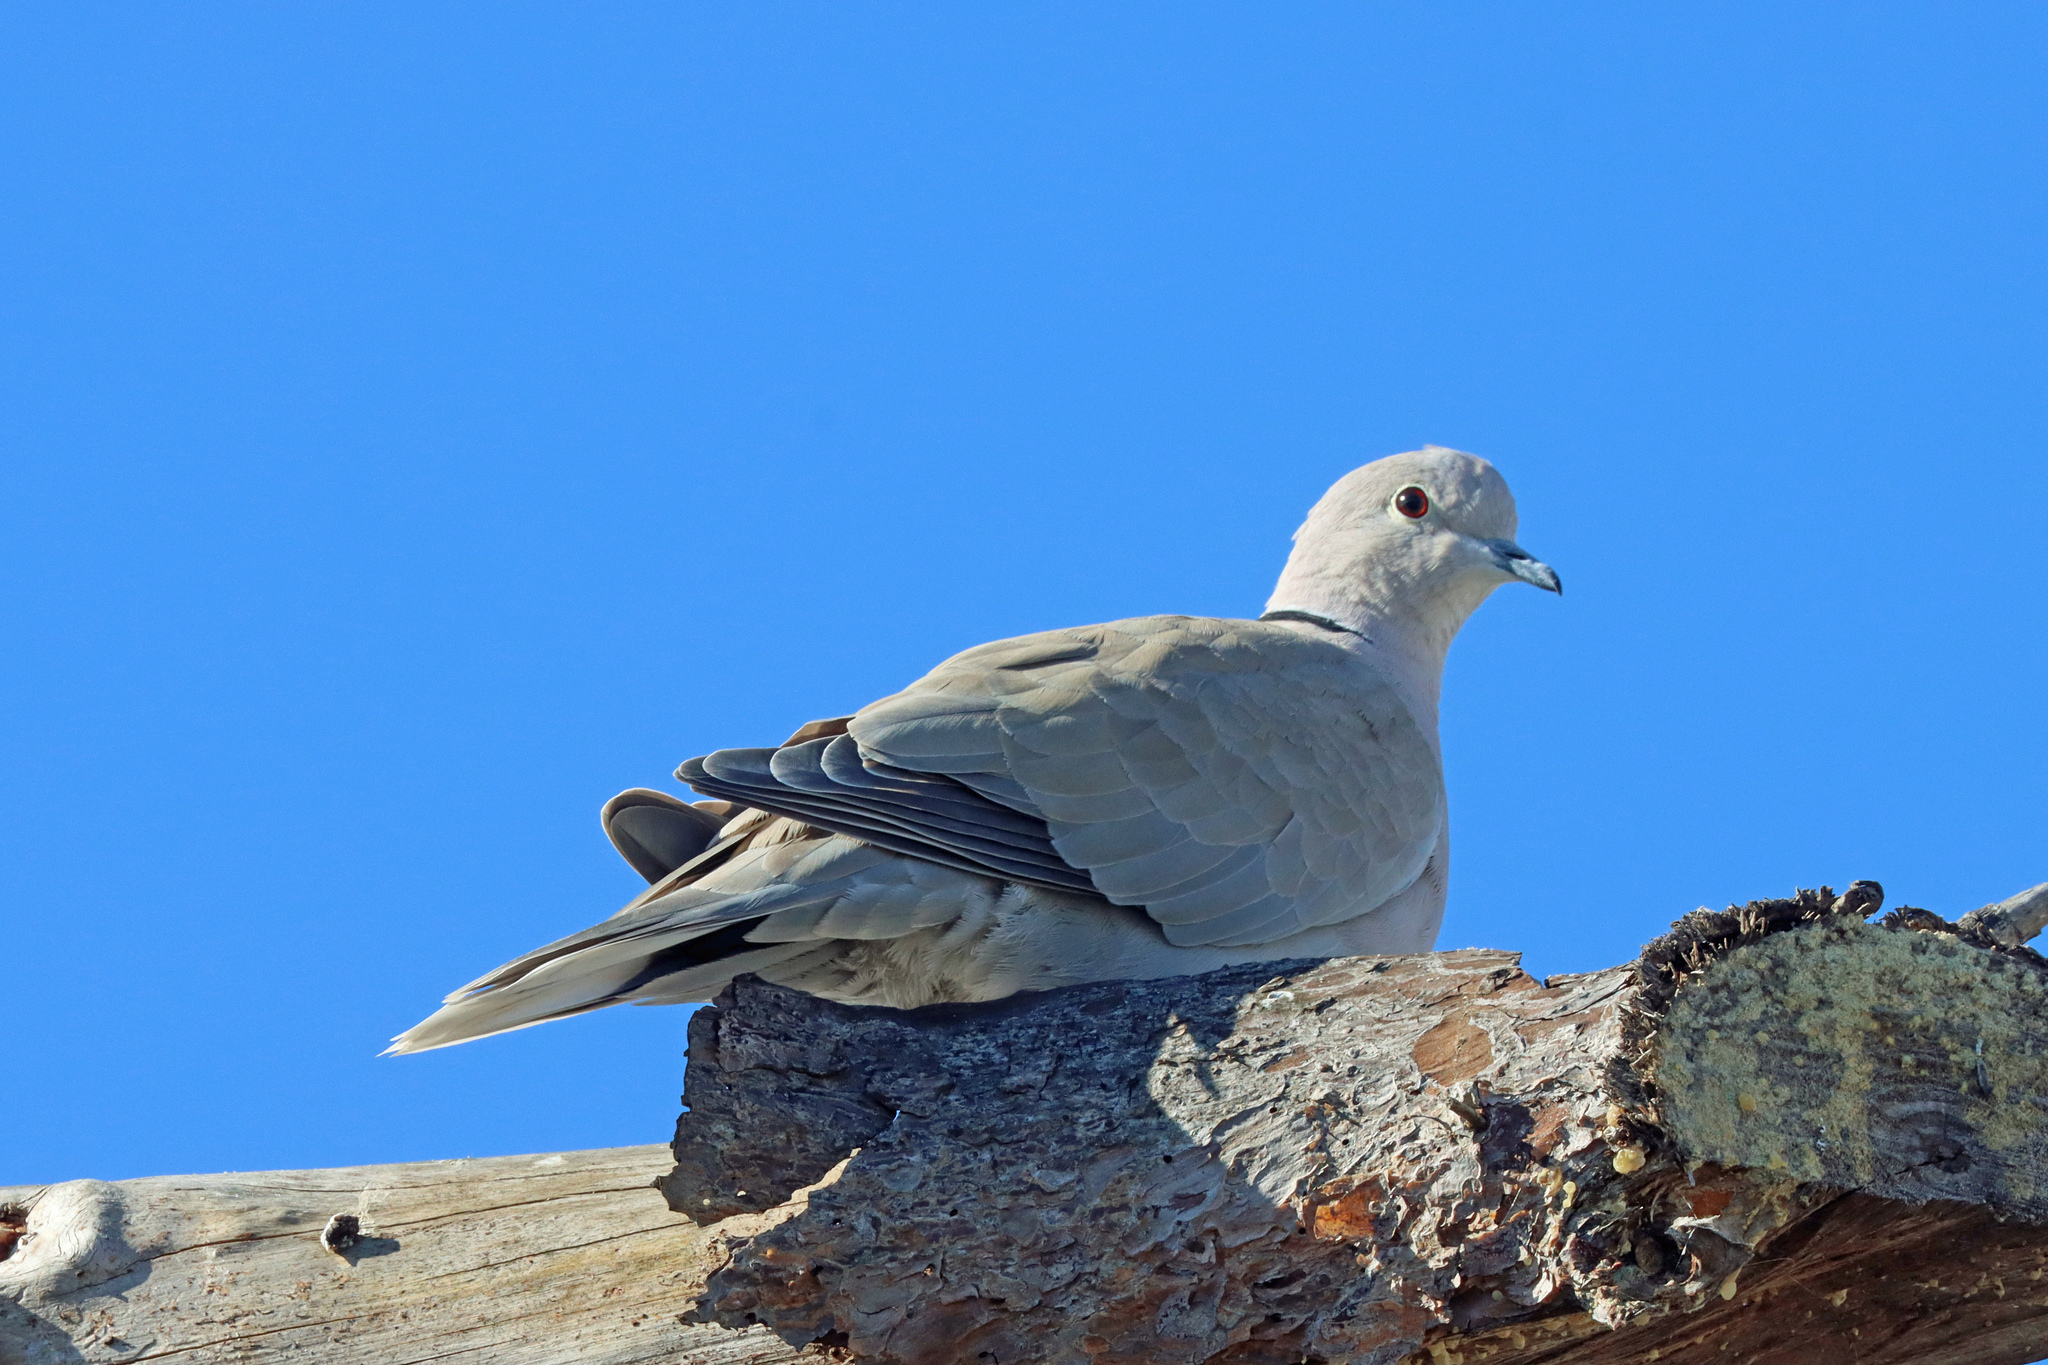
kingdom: Animalia
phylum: Chordata
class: Aves
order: Columbiformes
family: Columbidae
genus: Streptopelia
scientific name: Streptopelia decaocto
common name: Eurasian collared dove
